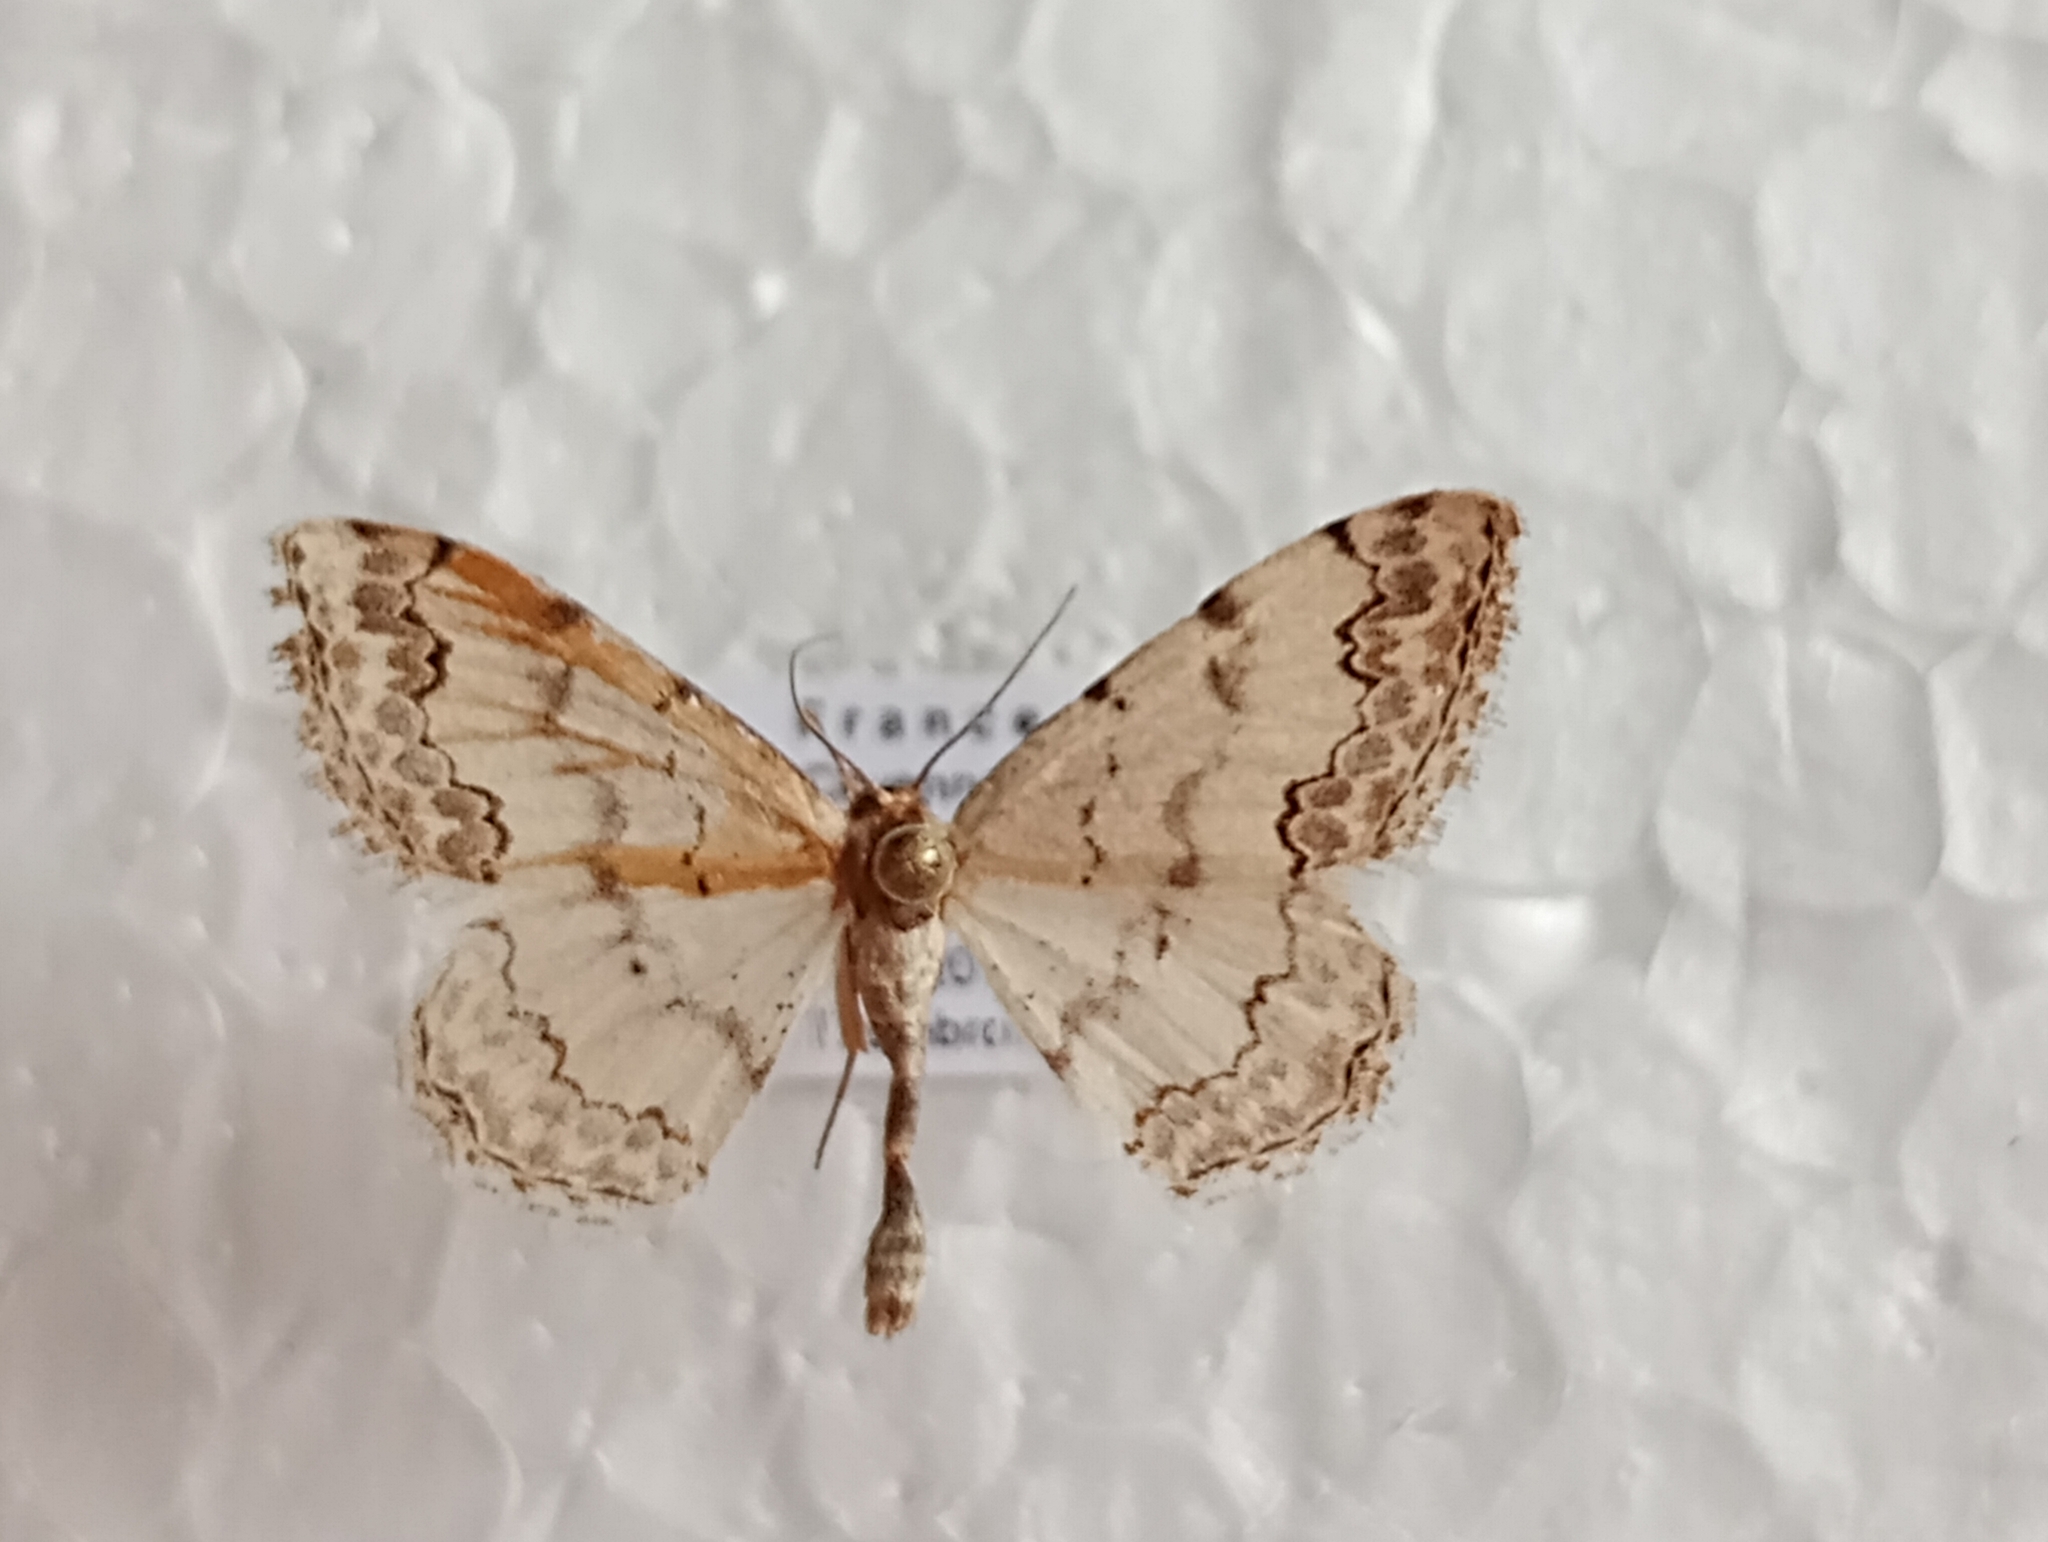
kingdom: Animalia
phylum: Arthropoda
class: Insecta
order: Lepidoptera
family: Geometridae
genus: Scopula
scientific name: Scopula decorata
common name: Middle lace border
